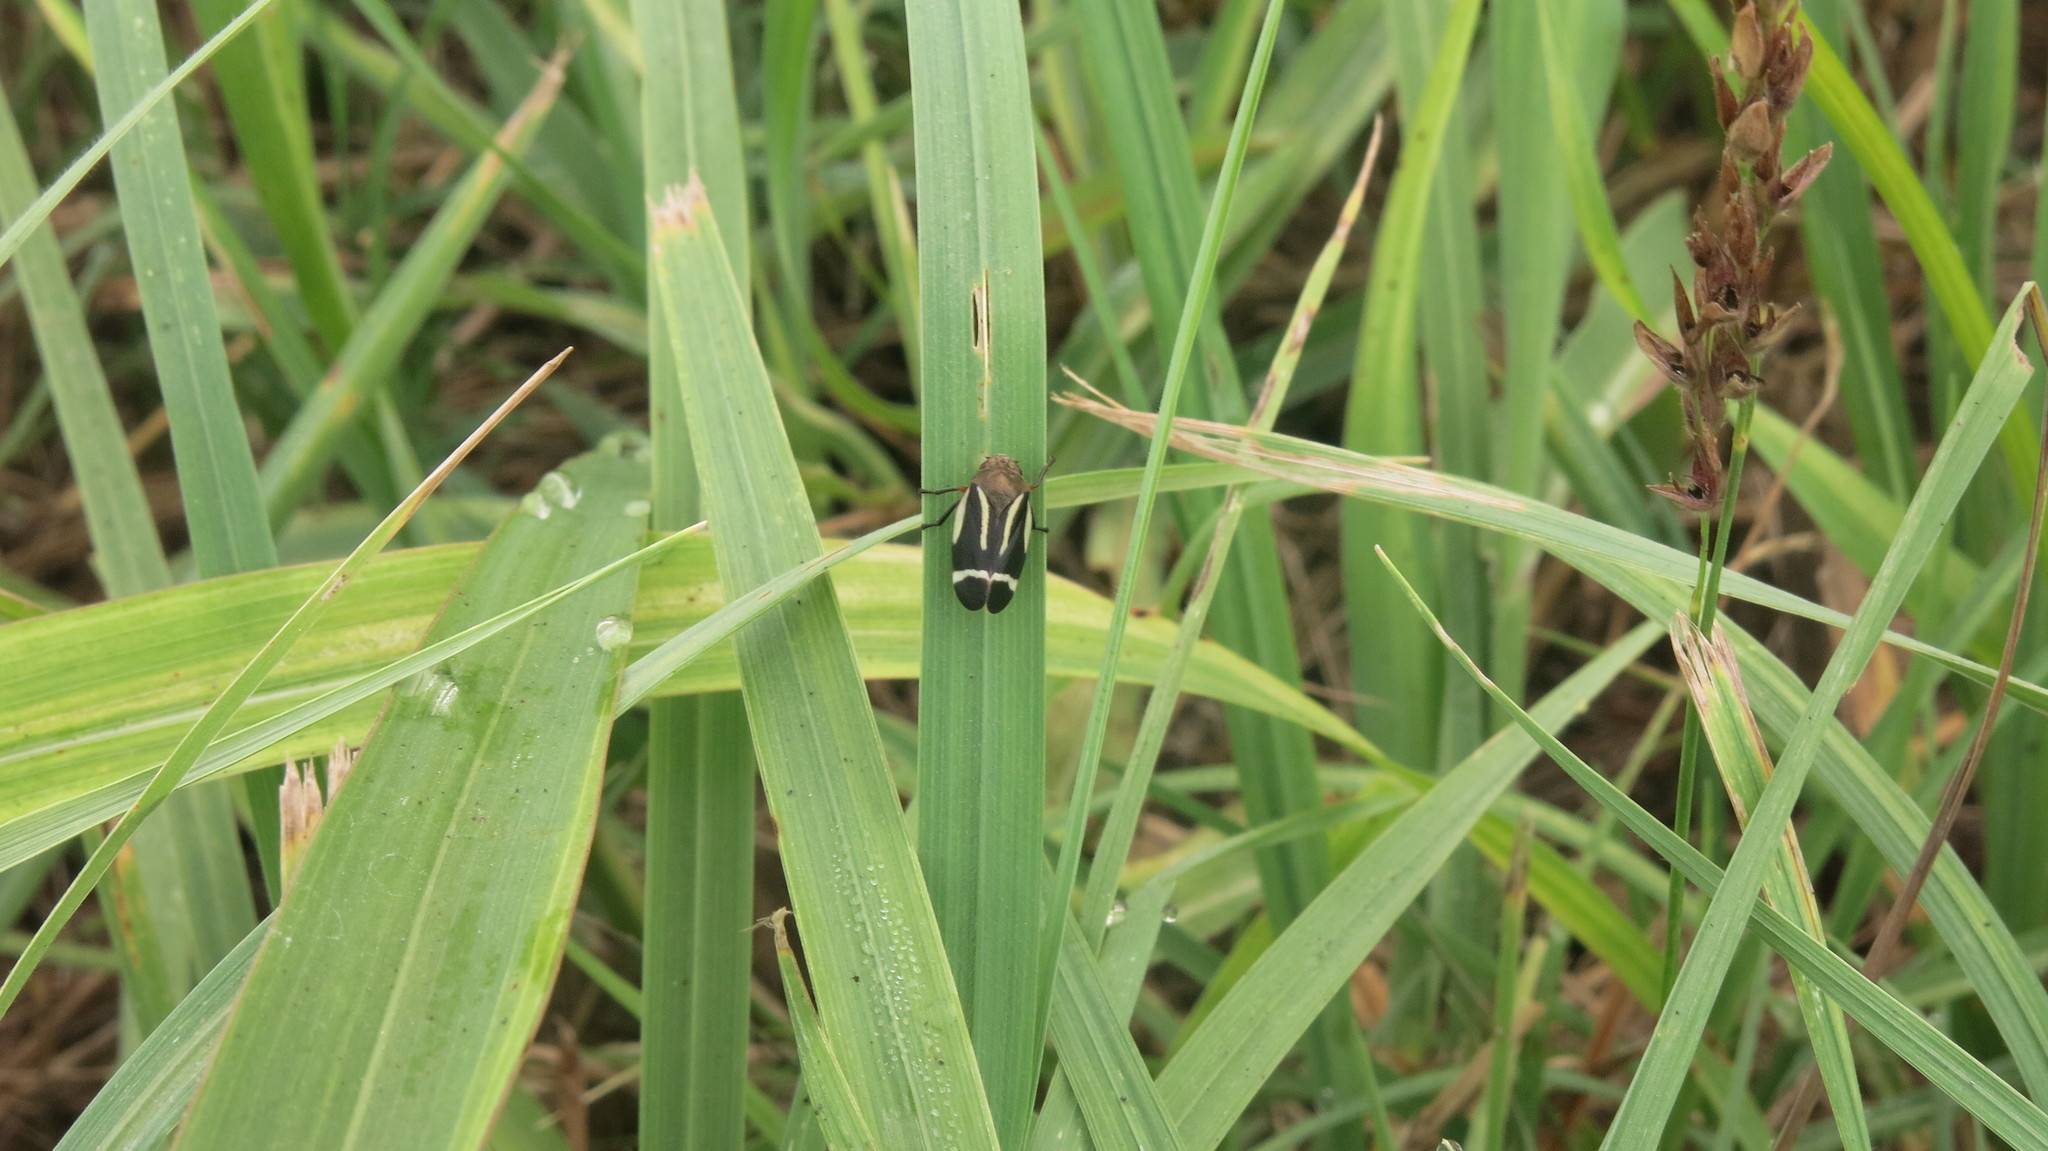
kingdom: Animalia
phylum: Arthropoda
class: Insecta
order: Hemiptera
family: Cercopidae
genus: Notozulia
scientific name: Notozulia entreriana
